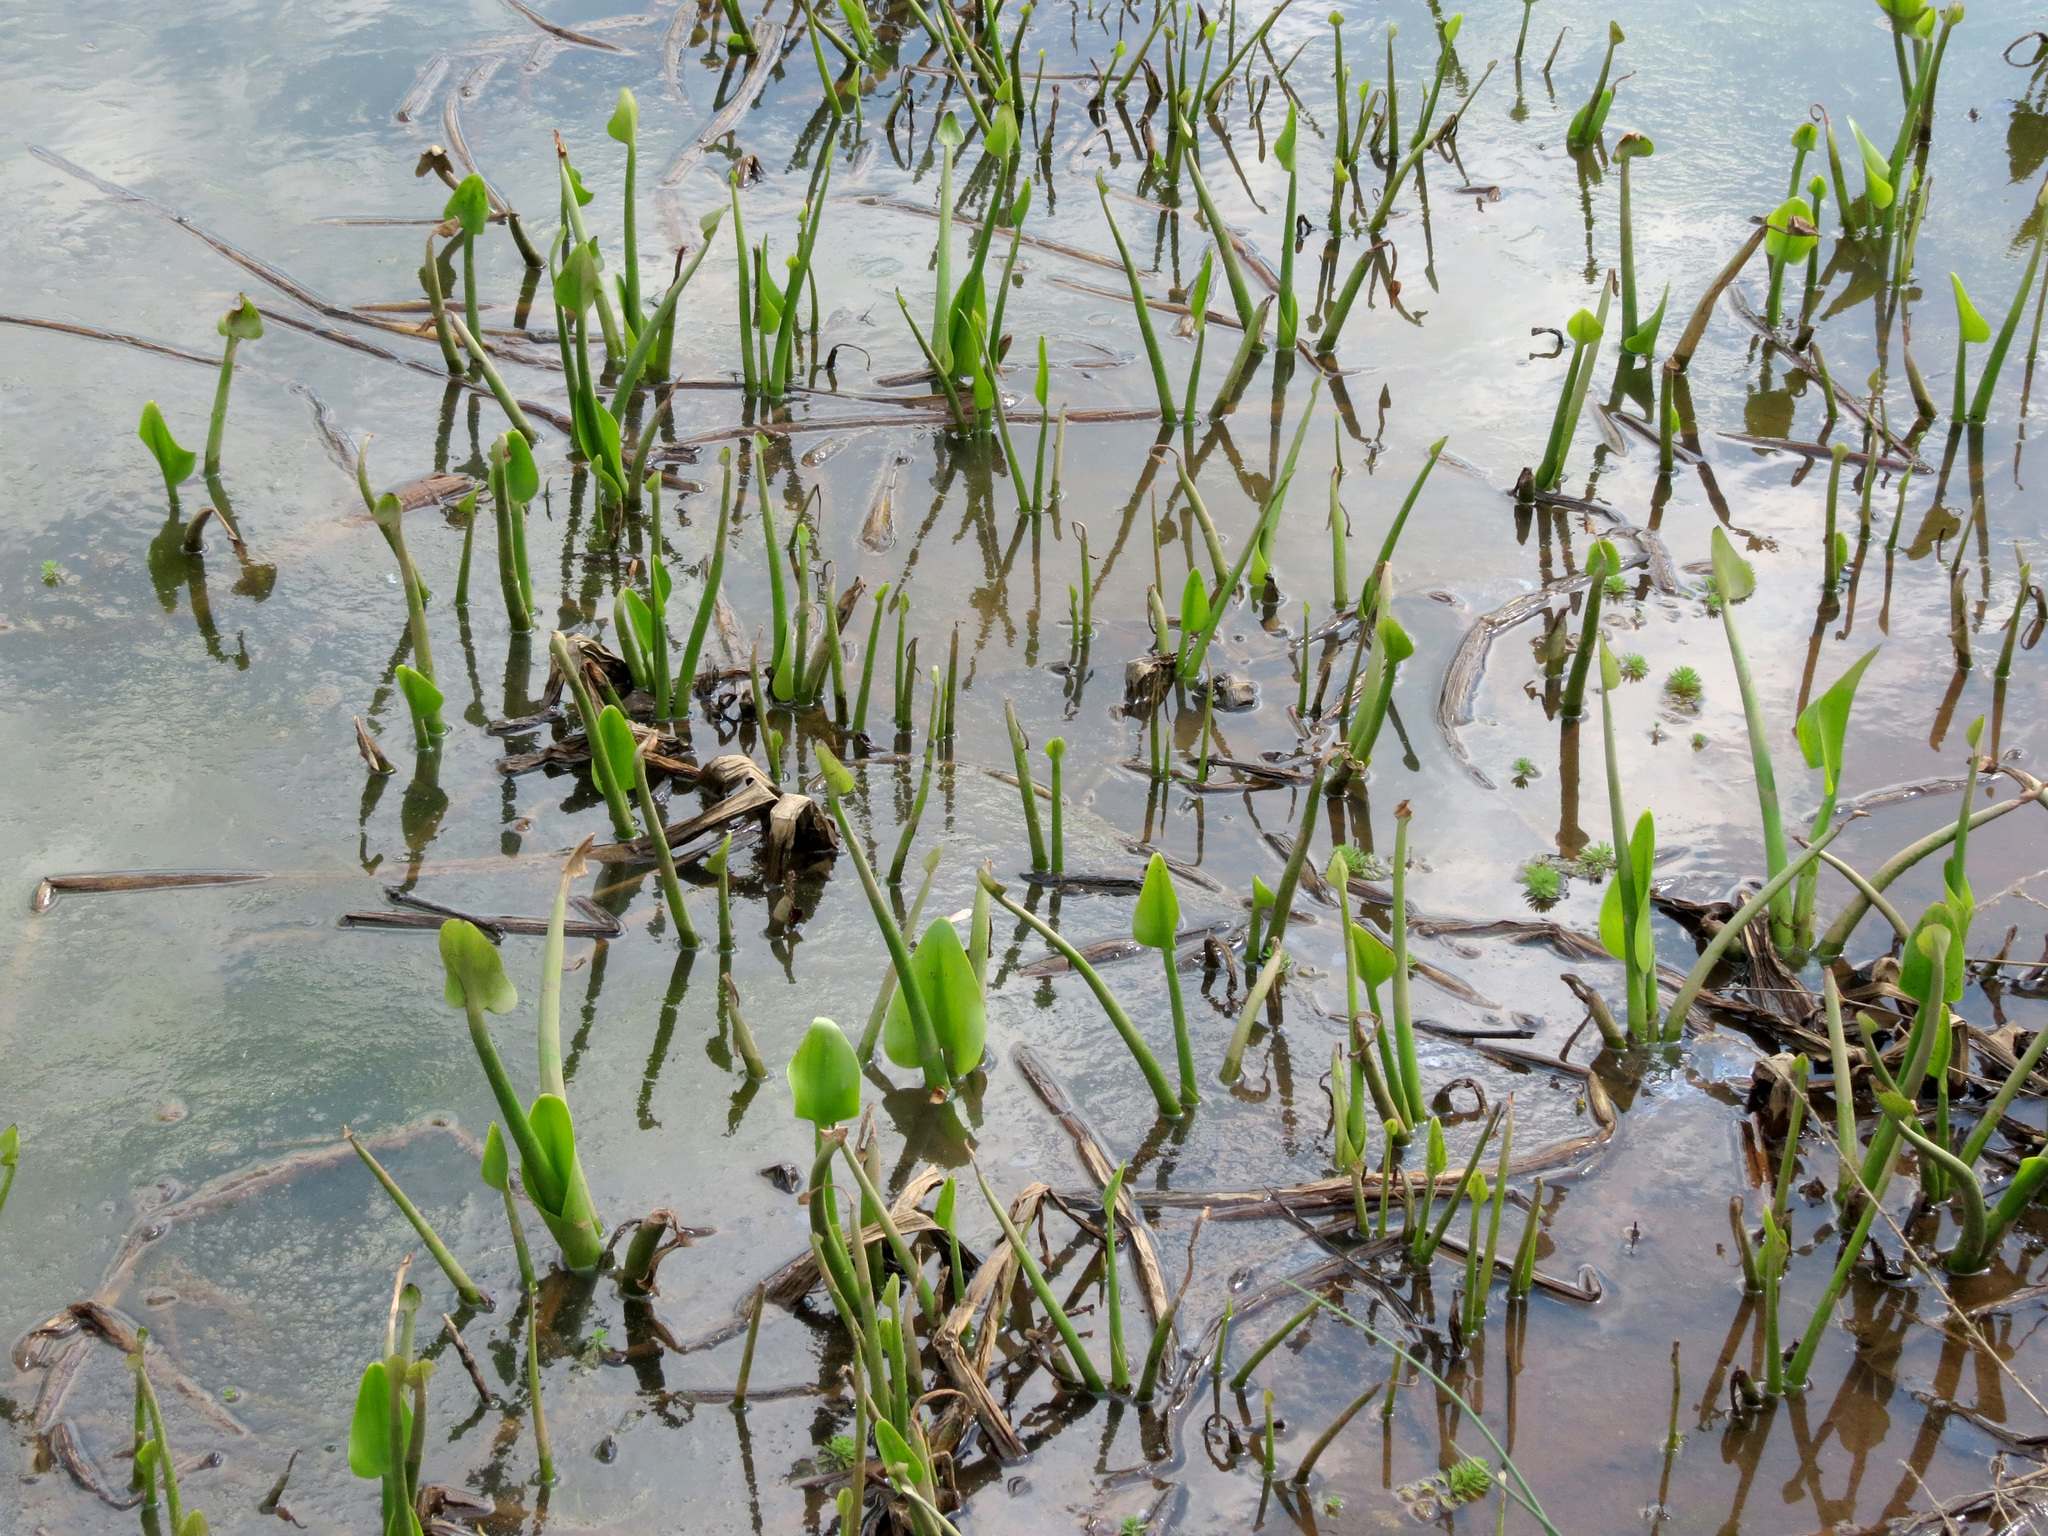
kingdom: Plantae
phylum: Tracheophyta
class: Liliopsida
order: Commelinales
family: Pontederiaceae
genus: Pontederia
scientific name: Pontederia cordata
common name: Pickerelweed
